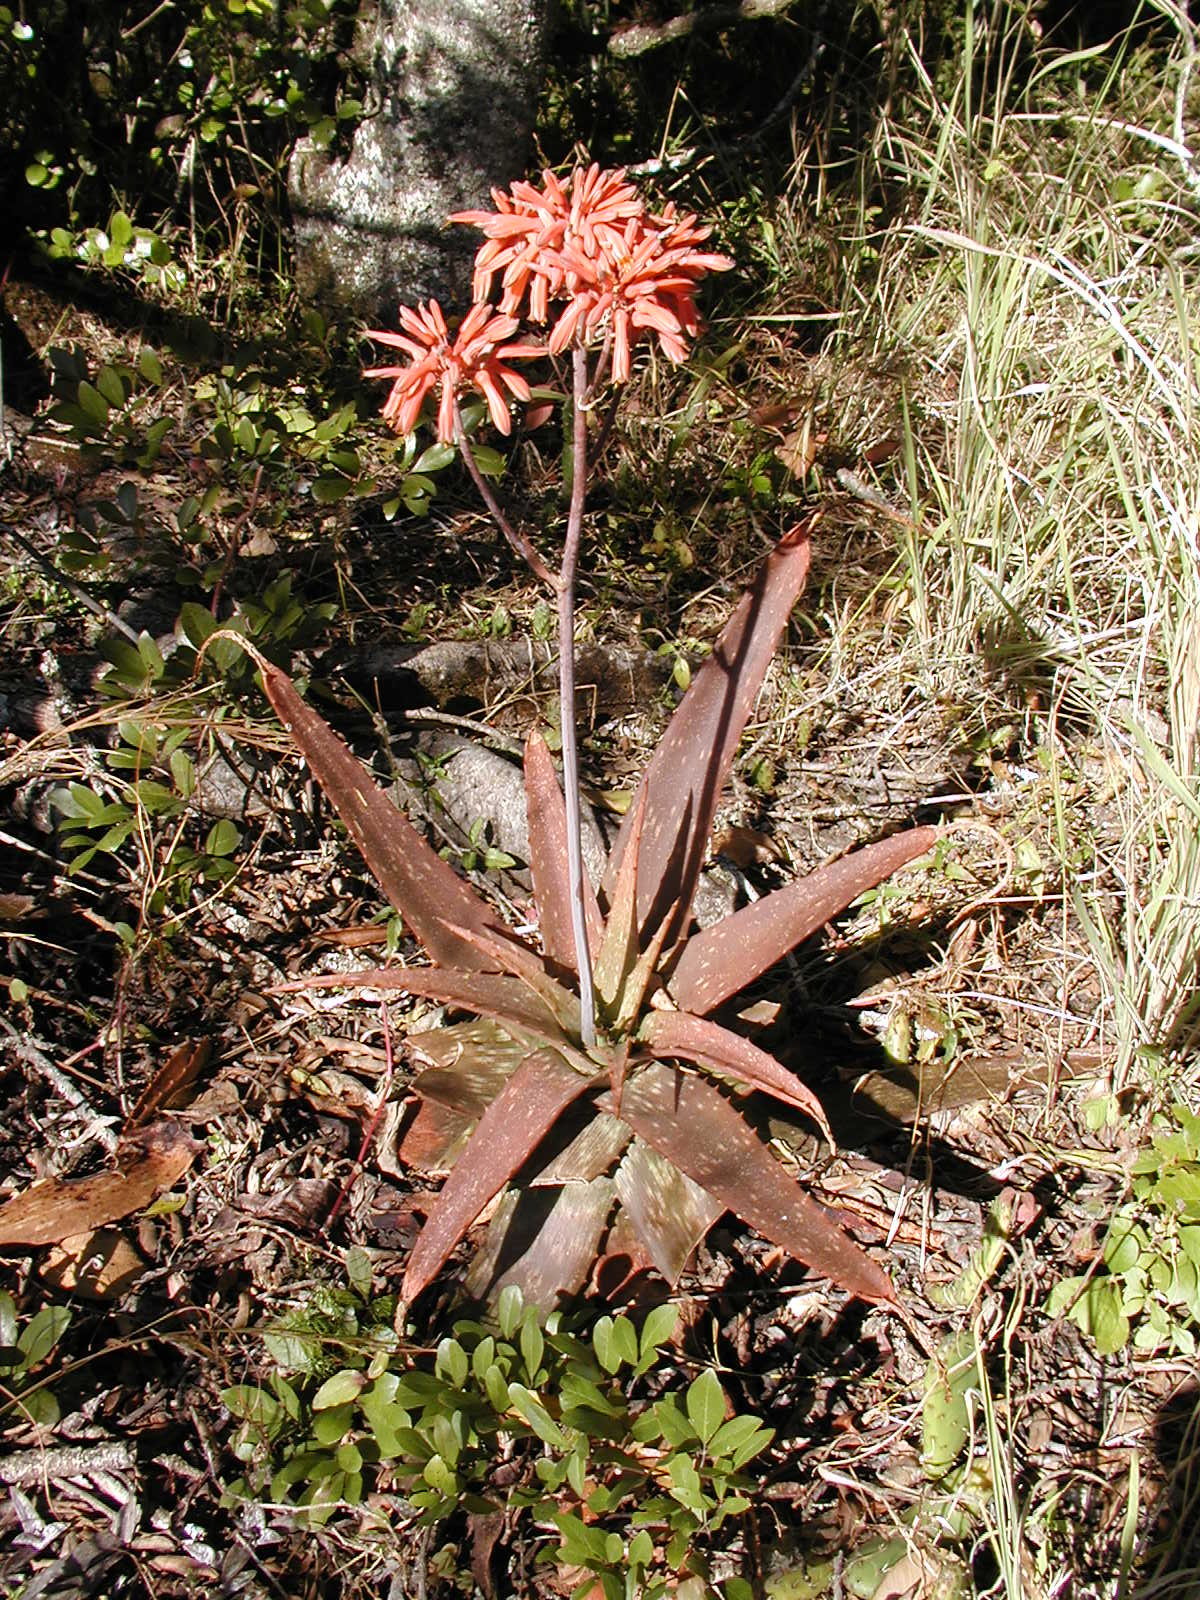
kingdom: Plantae
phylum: Tracheophyta
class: Liliopsida
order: Asparagales
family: Asphodelaceae
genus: Aloe
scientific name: Aloe hahnii
